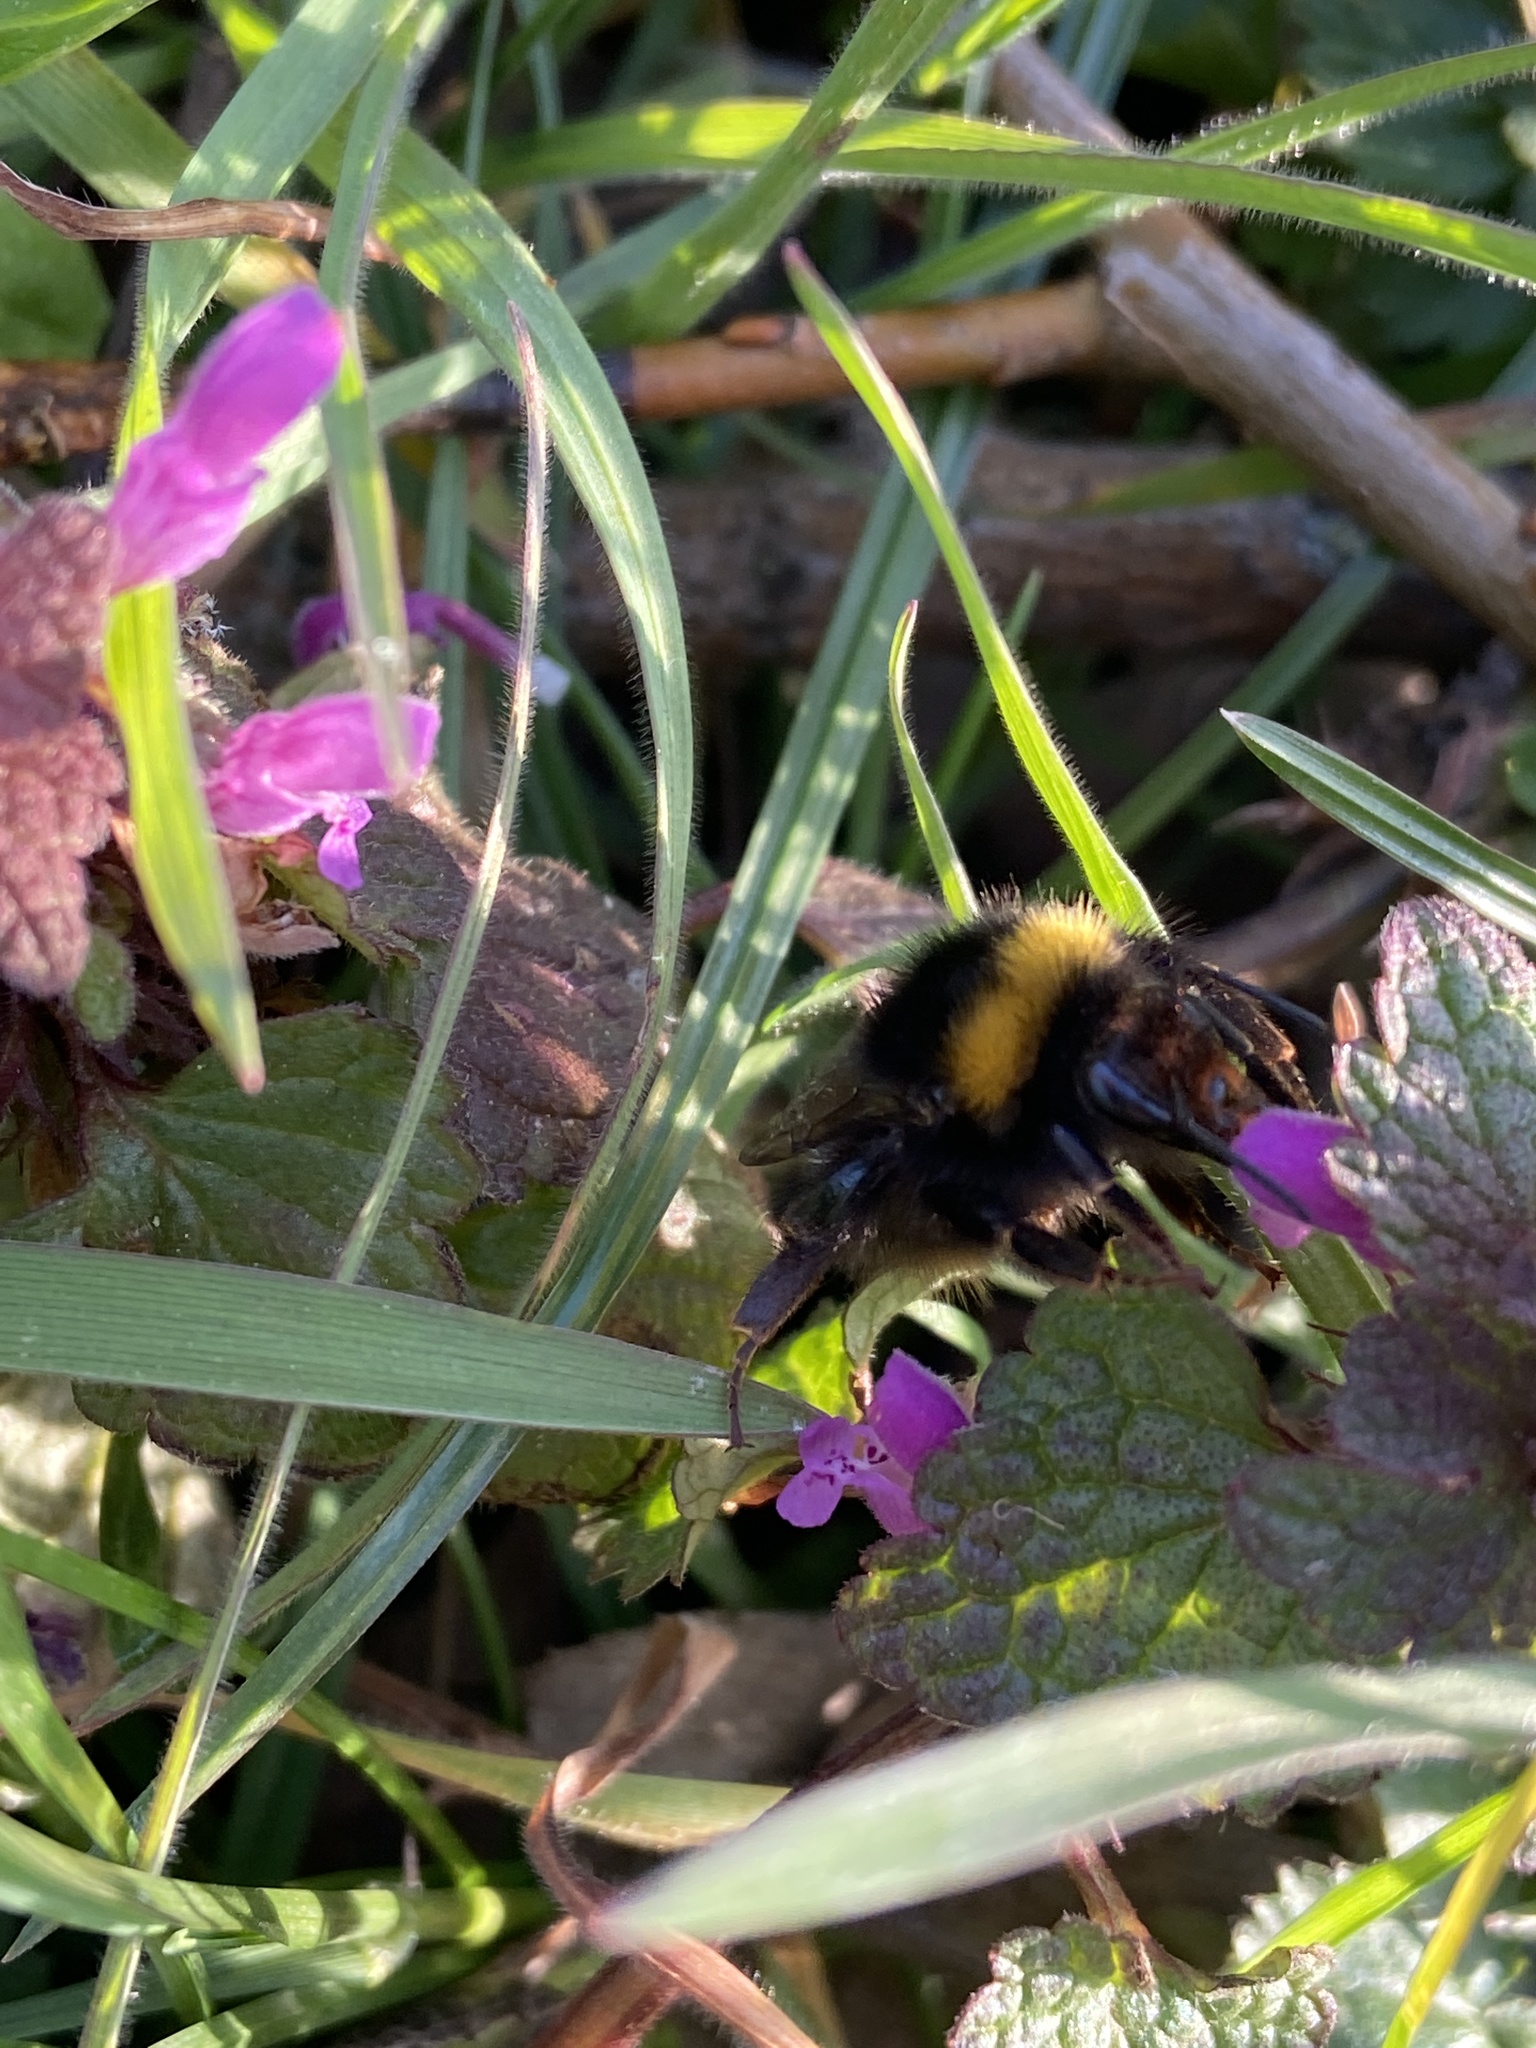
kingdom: Animalia
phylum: Arthropoda
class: Insecta
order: Hymenoptera
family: Apidae
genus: Bombus
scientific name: Bombus pratorum
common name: Early humble-bee
